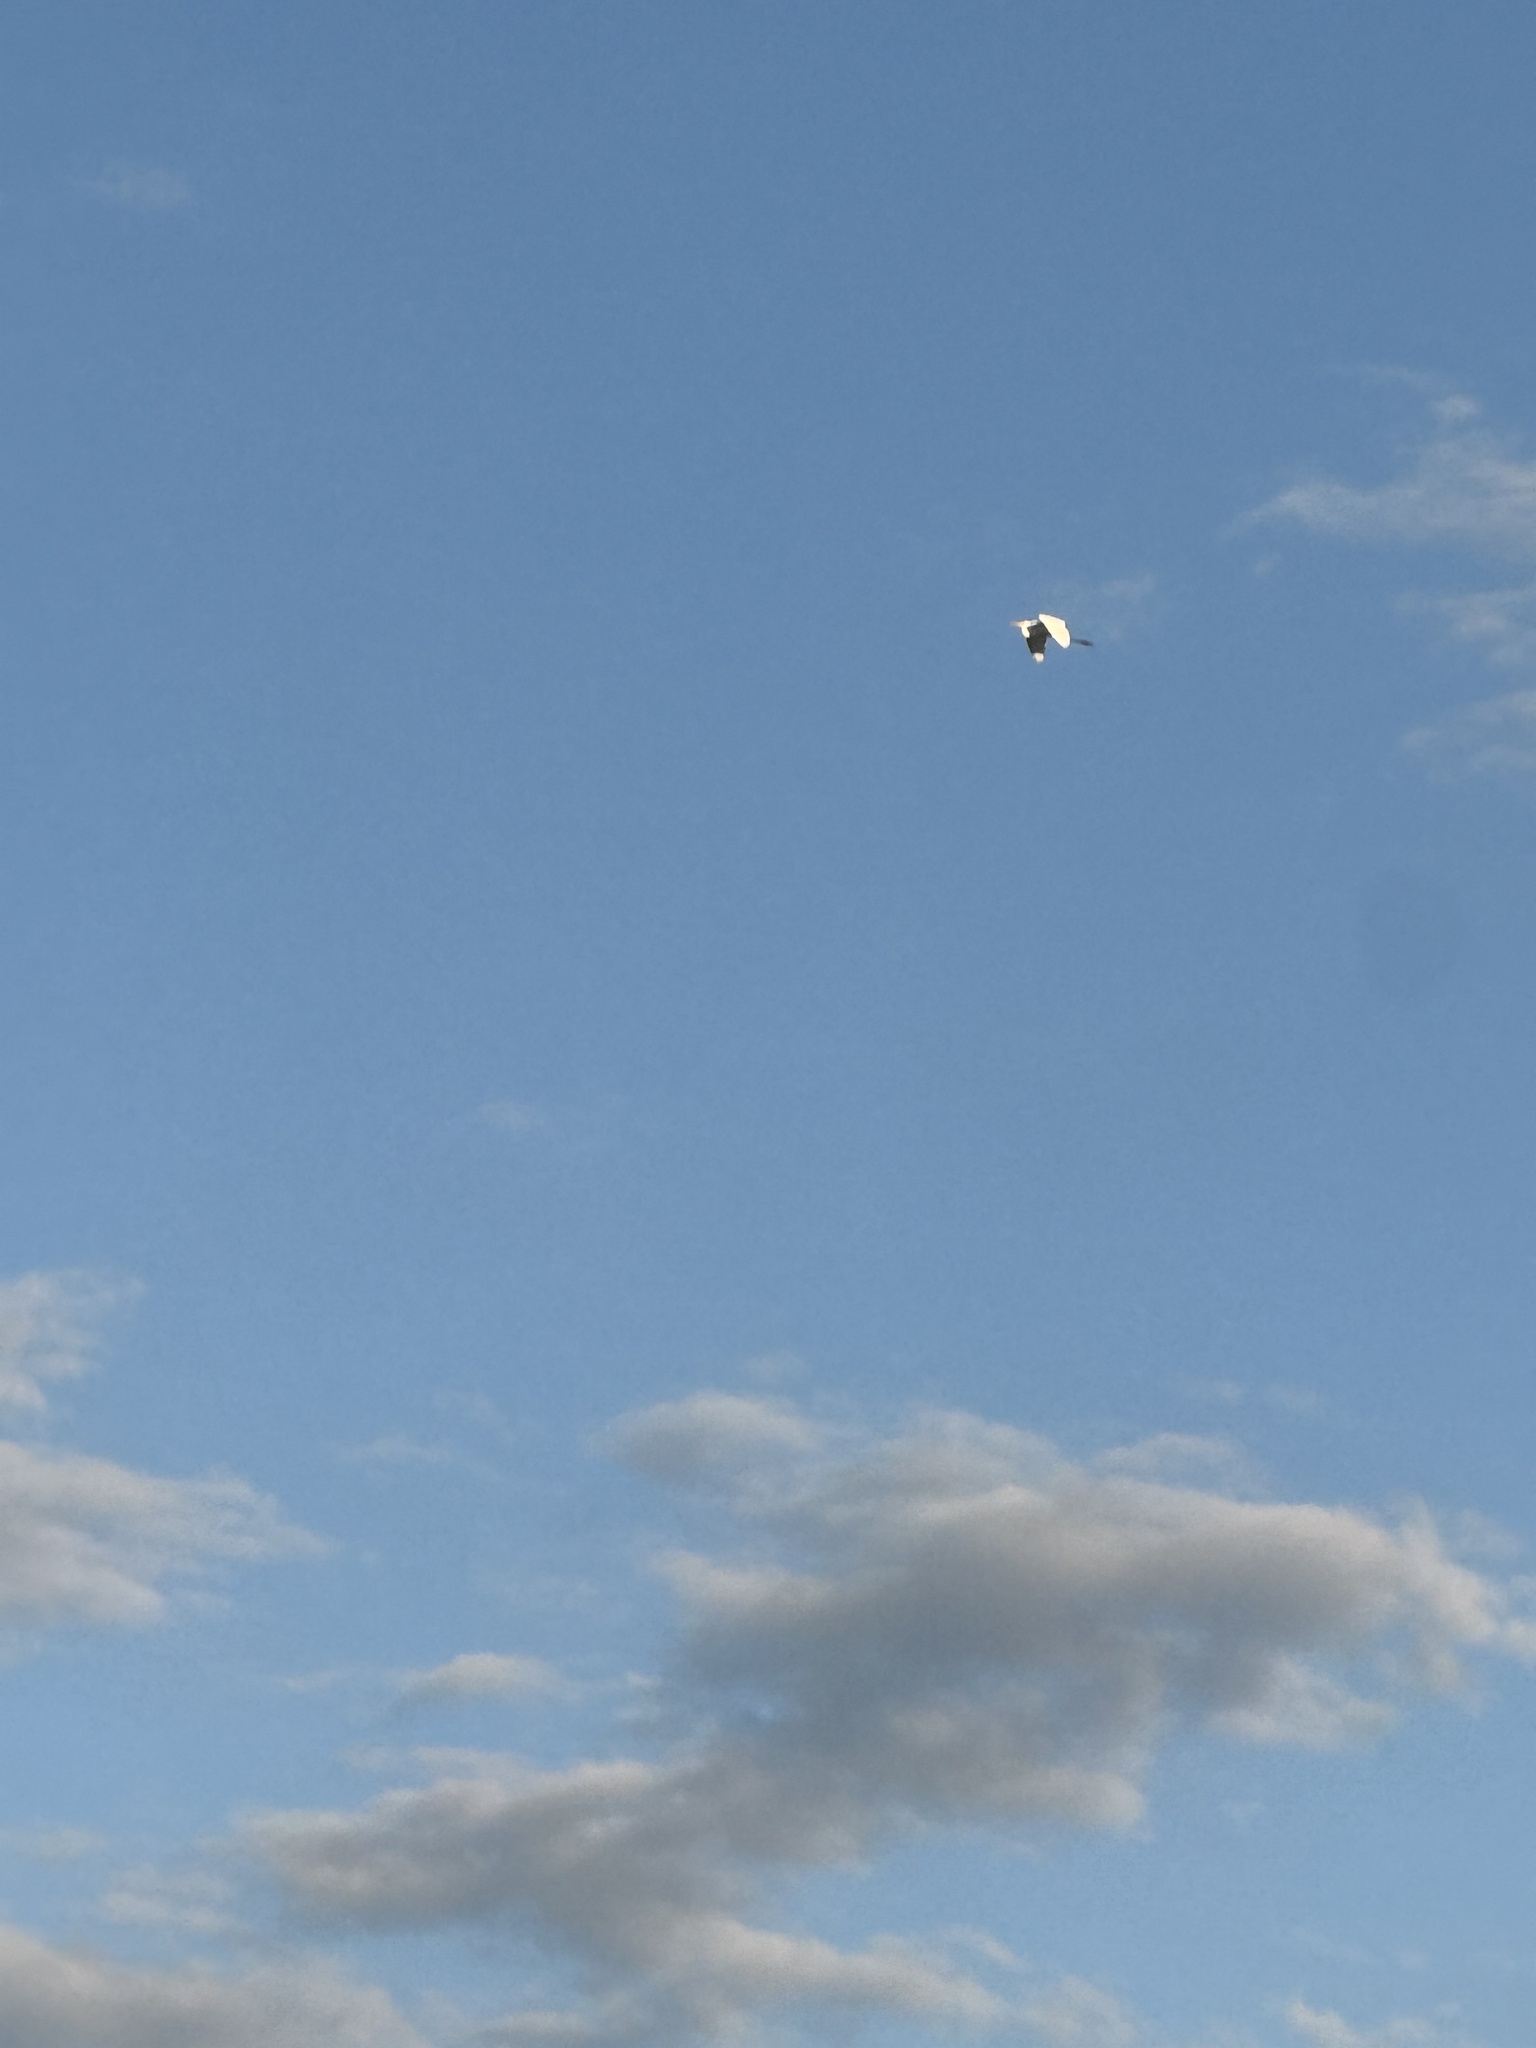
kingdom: Animalia
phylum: Chordata
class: Aves
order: Pelecaniformes
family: Ardeidae
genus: Ardea
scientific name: Ardea alba
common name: Great egret
